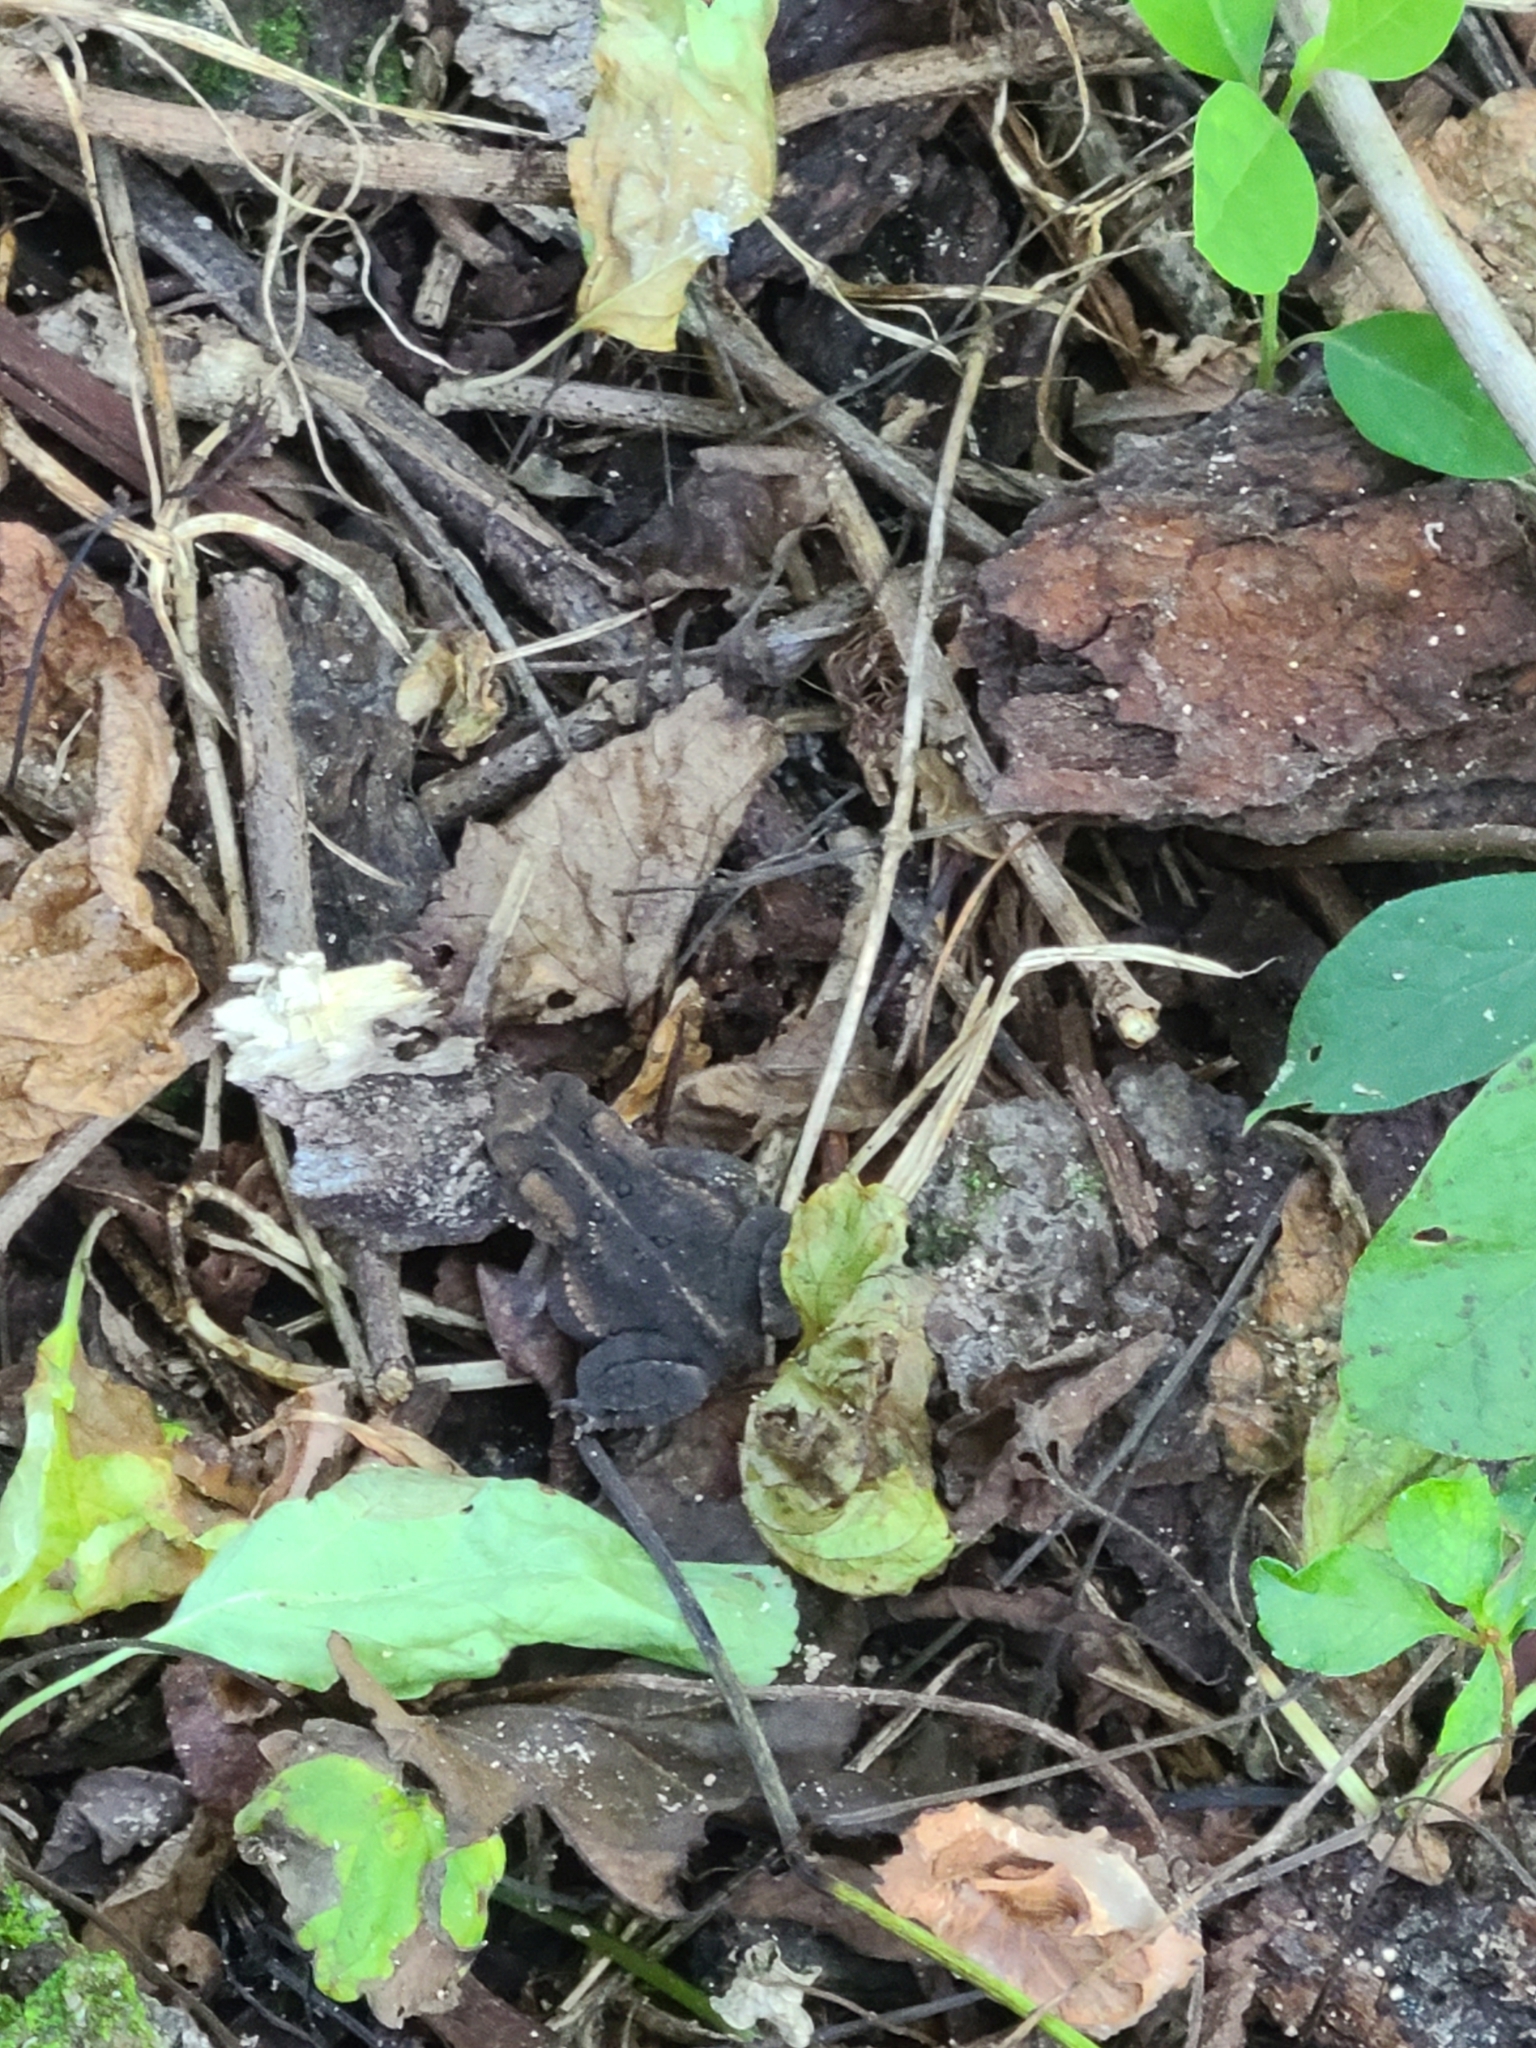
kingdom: Animalia
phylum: Chordata
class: Amphibia
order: Anura
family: Bufonidae
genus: Anaxyrus
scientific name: Anaxyrus americanus
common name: American toad
